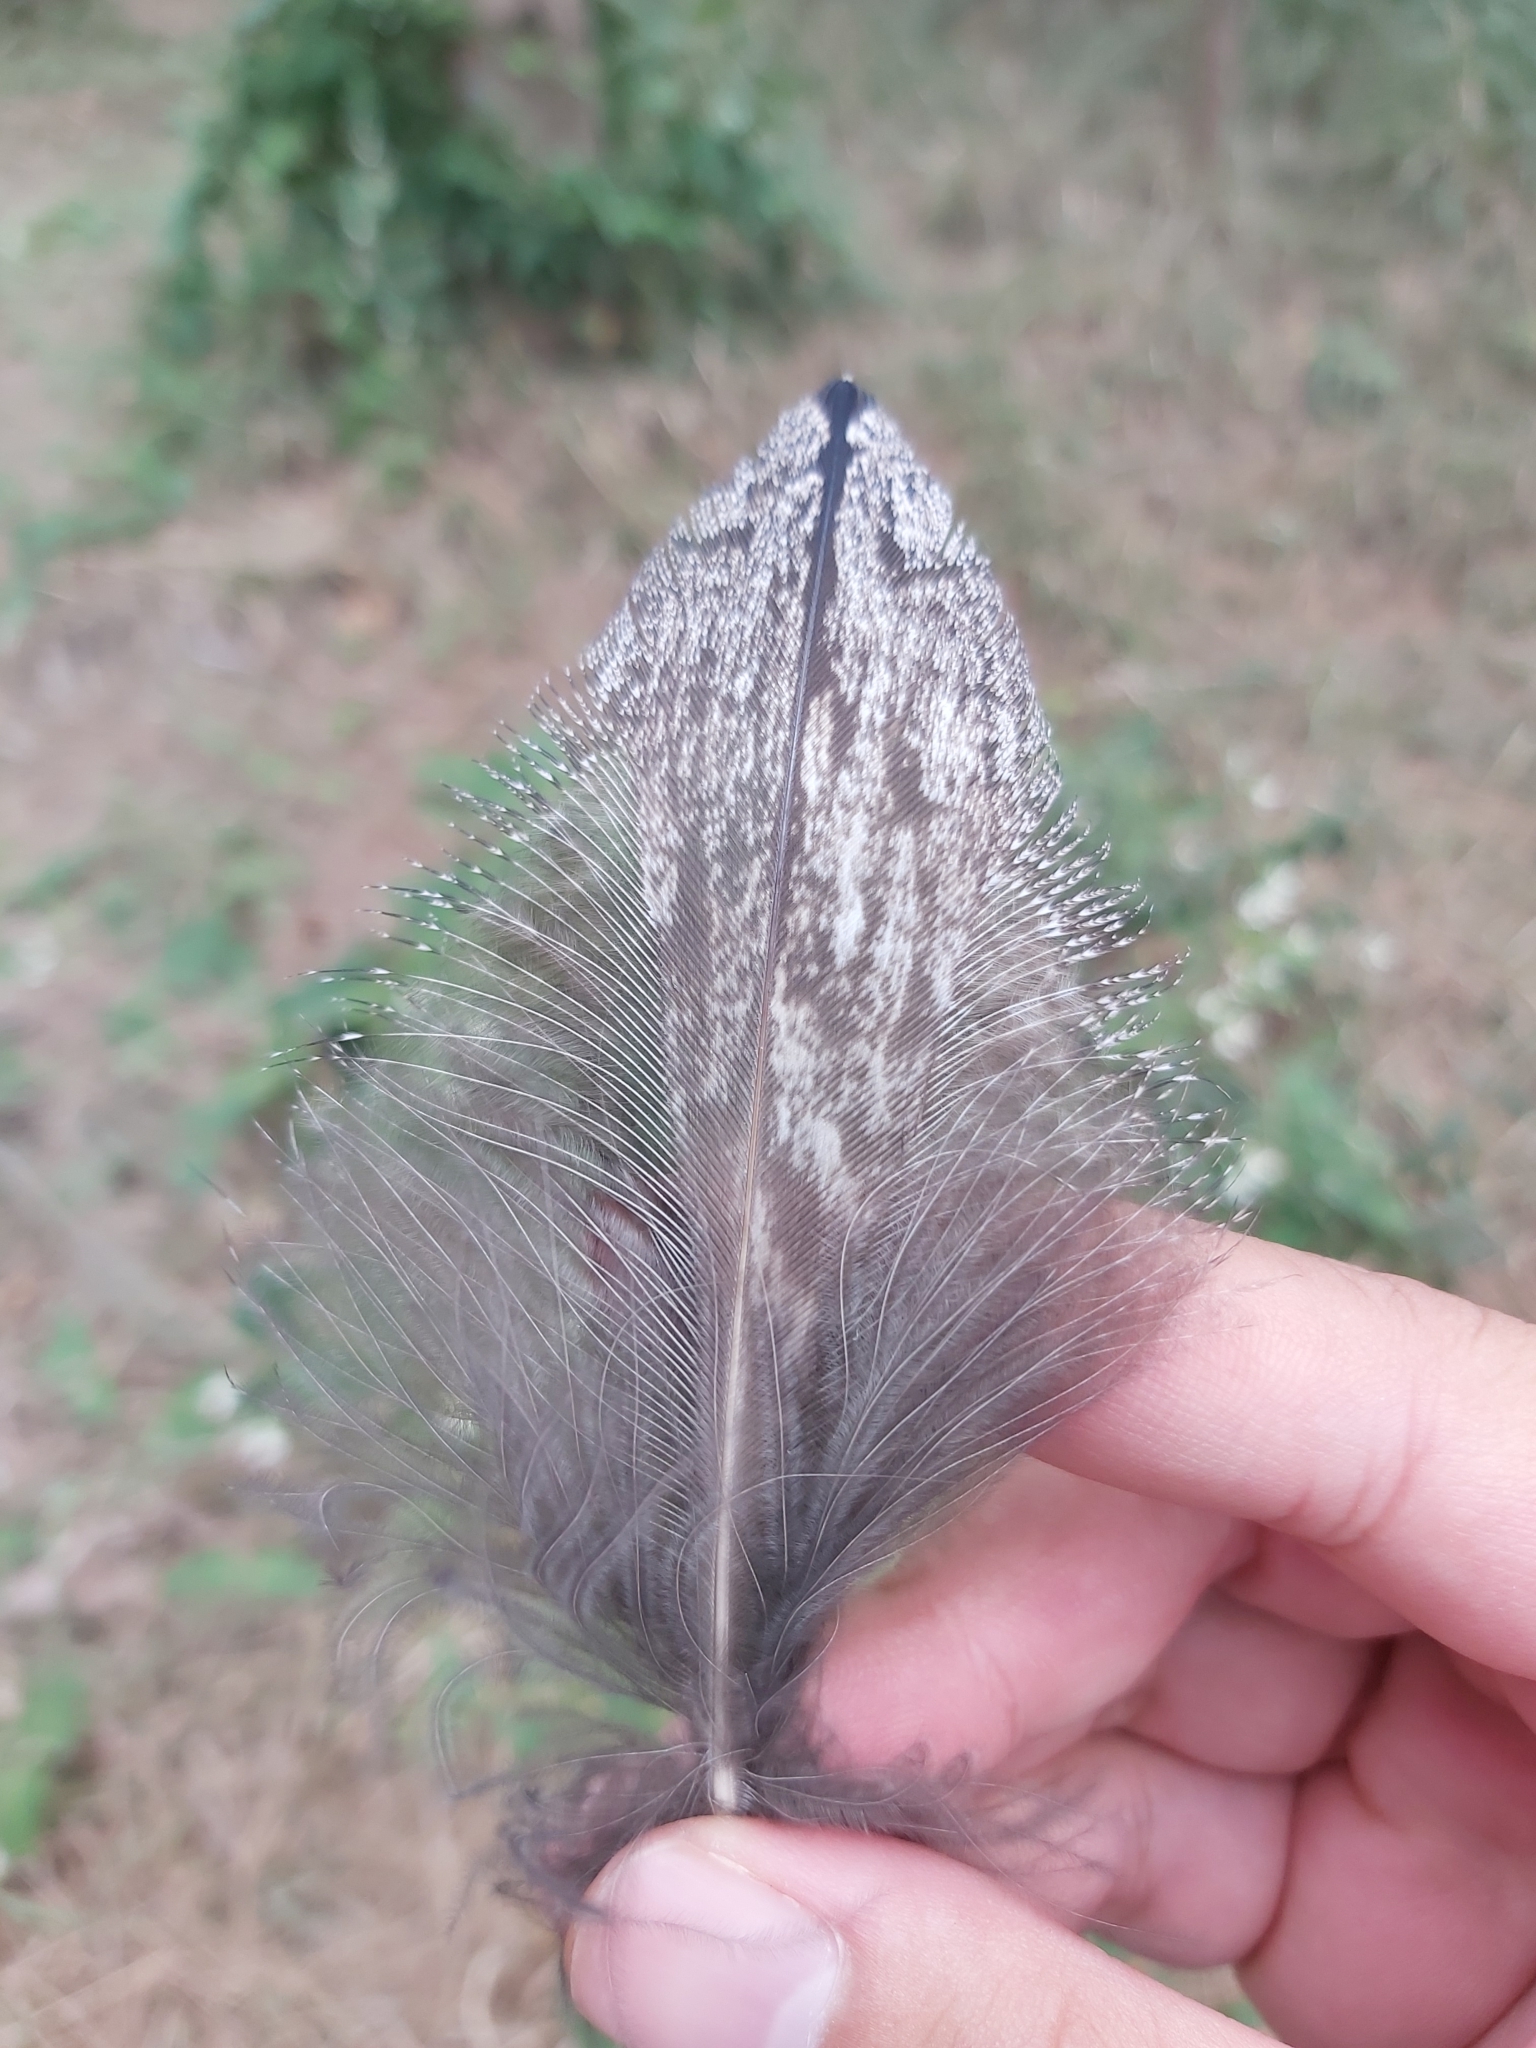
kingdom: Animalia
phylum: Chordata
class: Aves
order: Caprimulgiformes
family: Podargidae
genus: Podargus
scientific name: Podargus strigoides
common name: Tawny frogmouth
